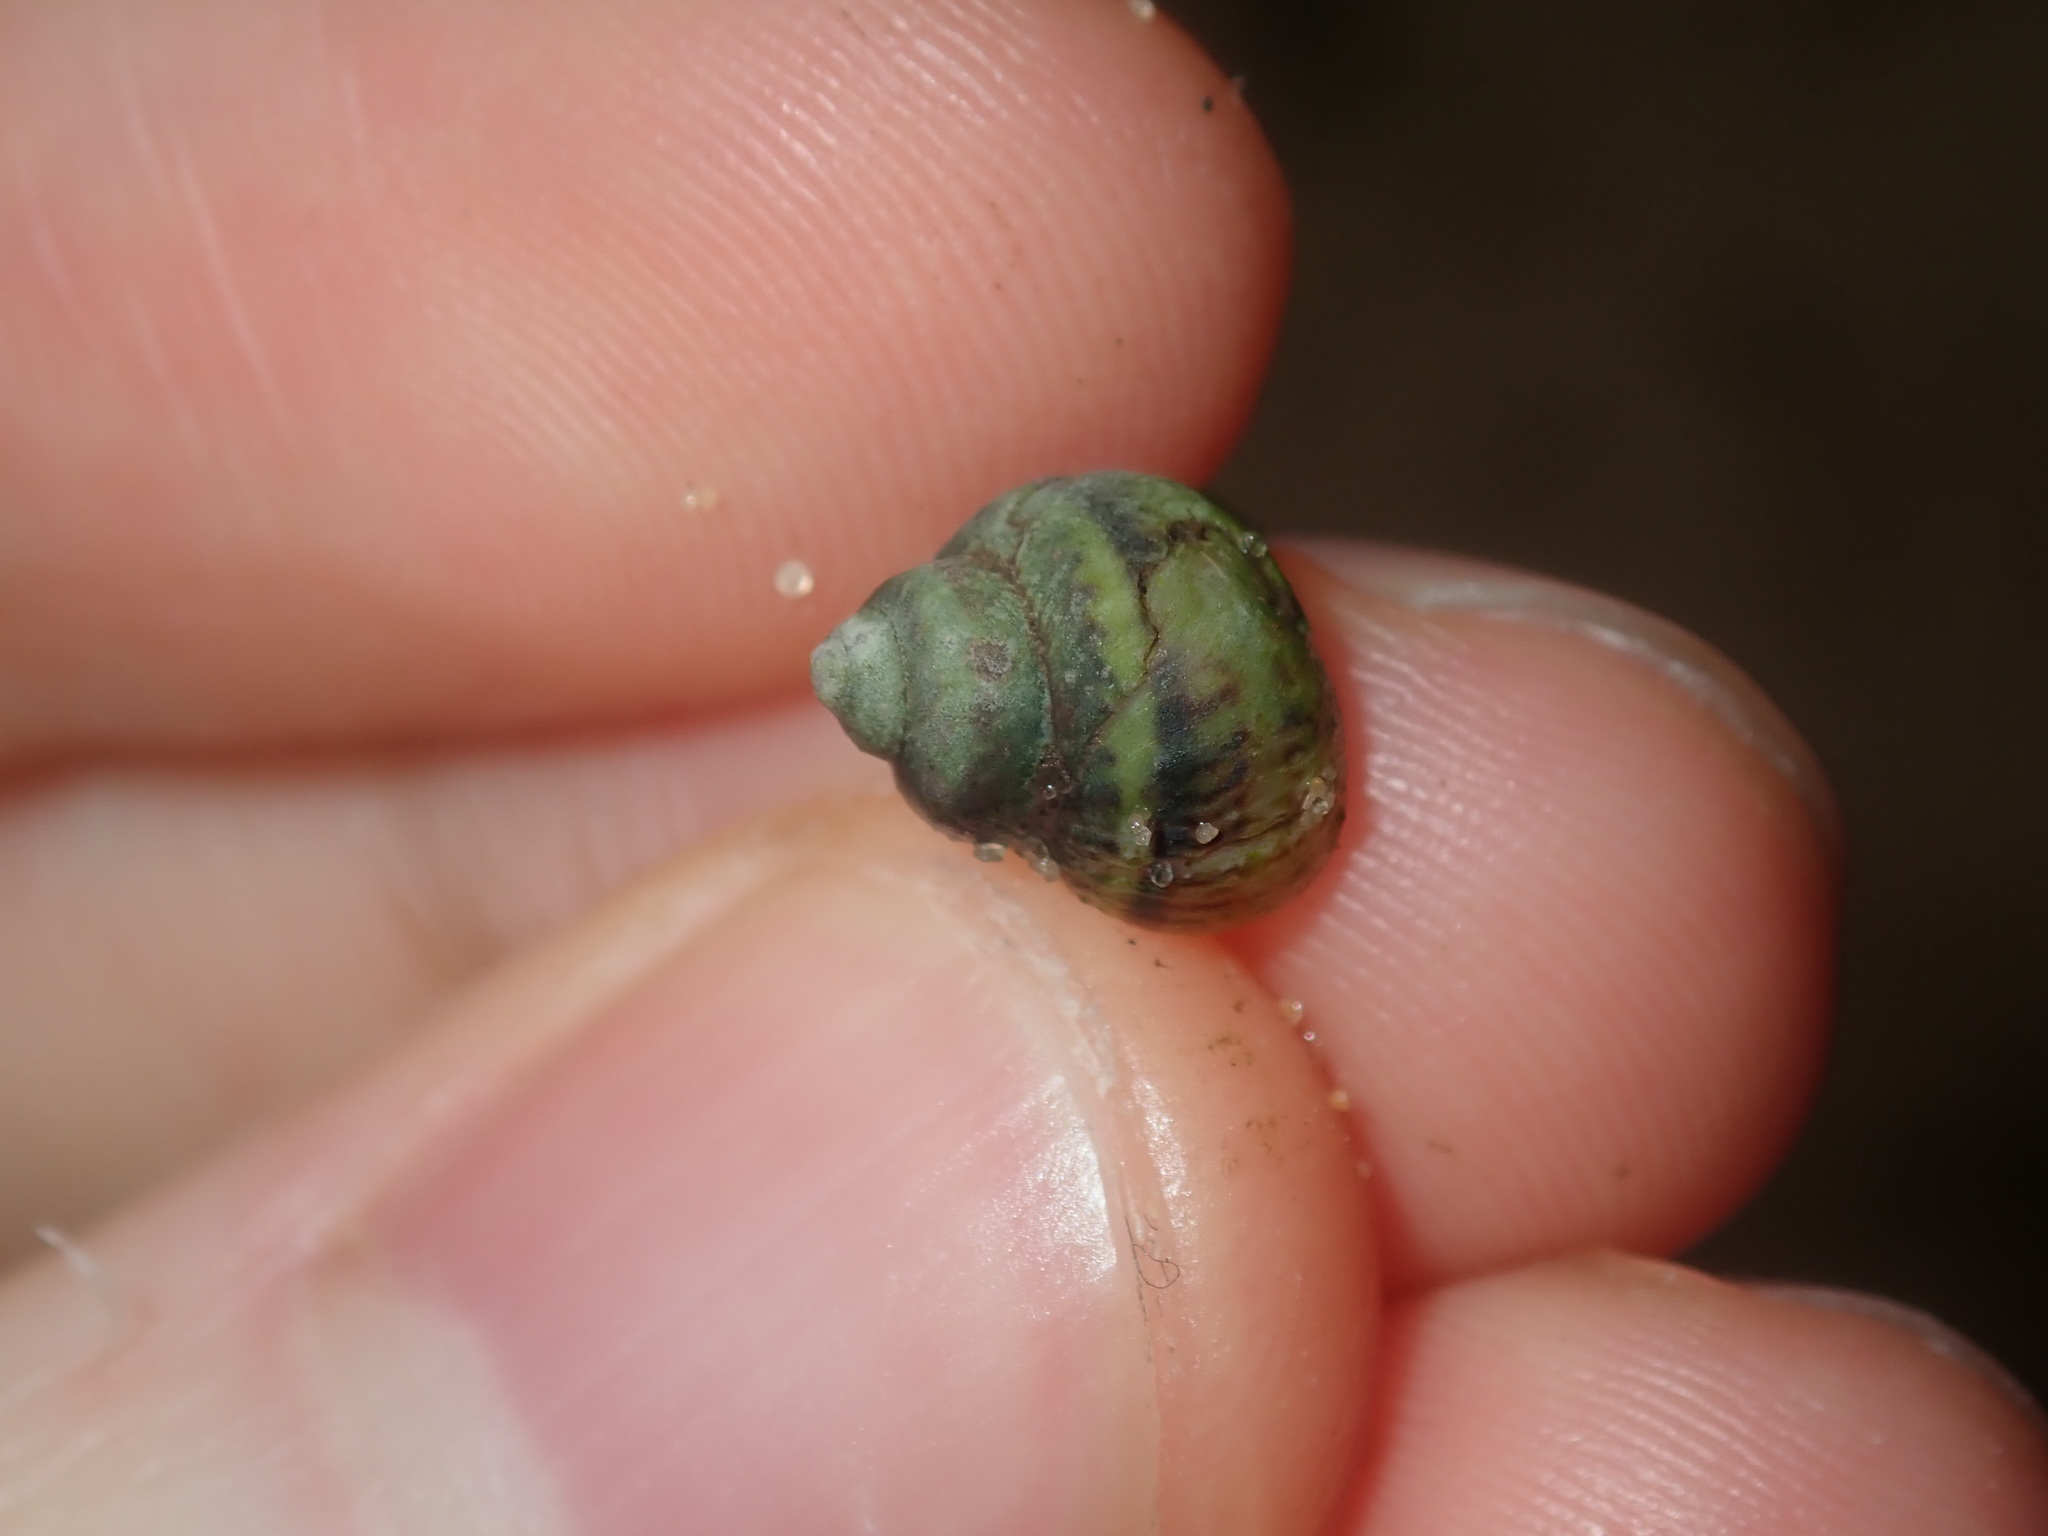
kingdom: Animalia
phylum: Mollusca
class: Gastropoda
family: Amphibolidae
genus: Phallomedusa
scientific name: Phallomedusa solida
